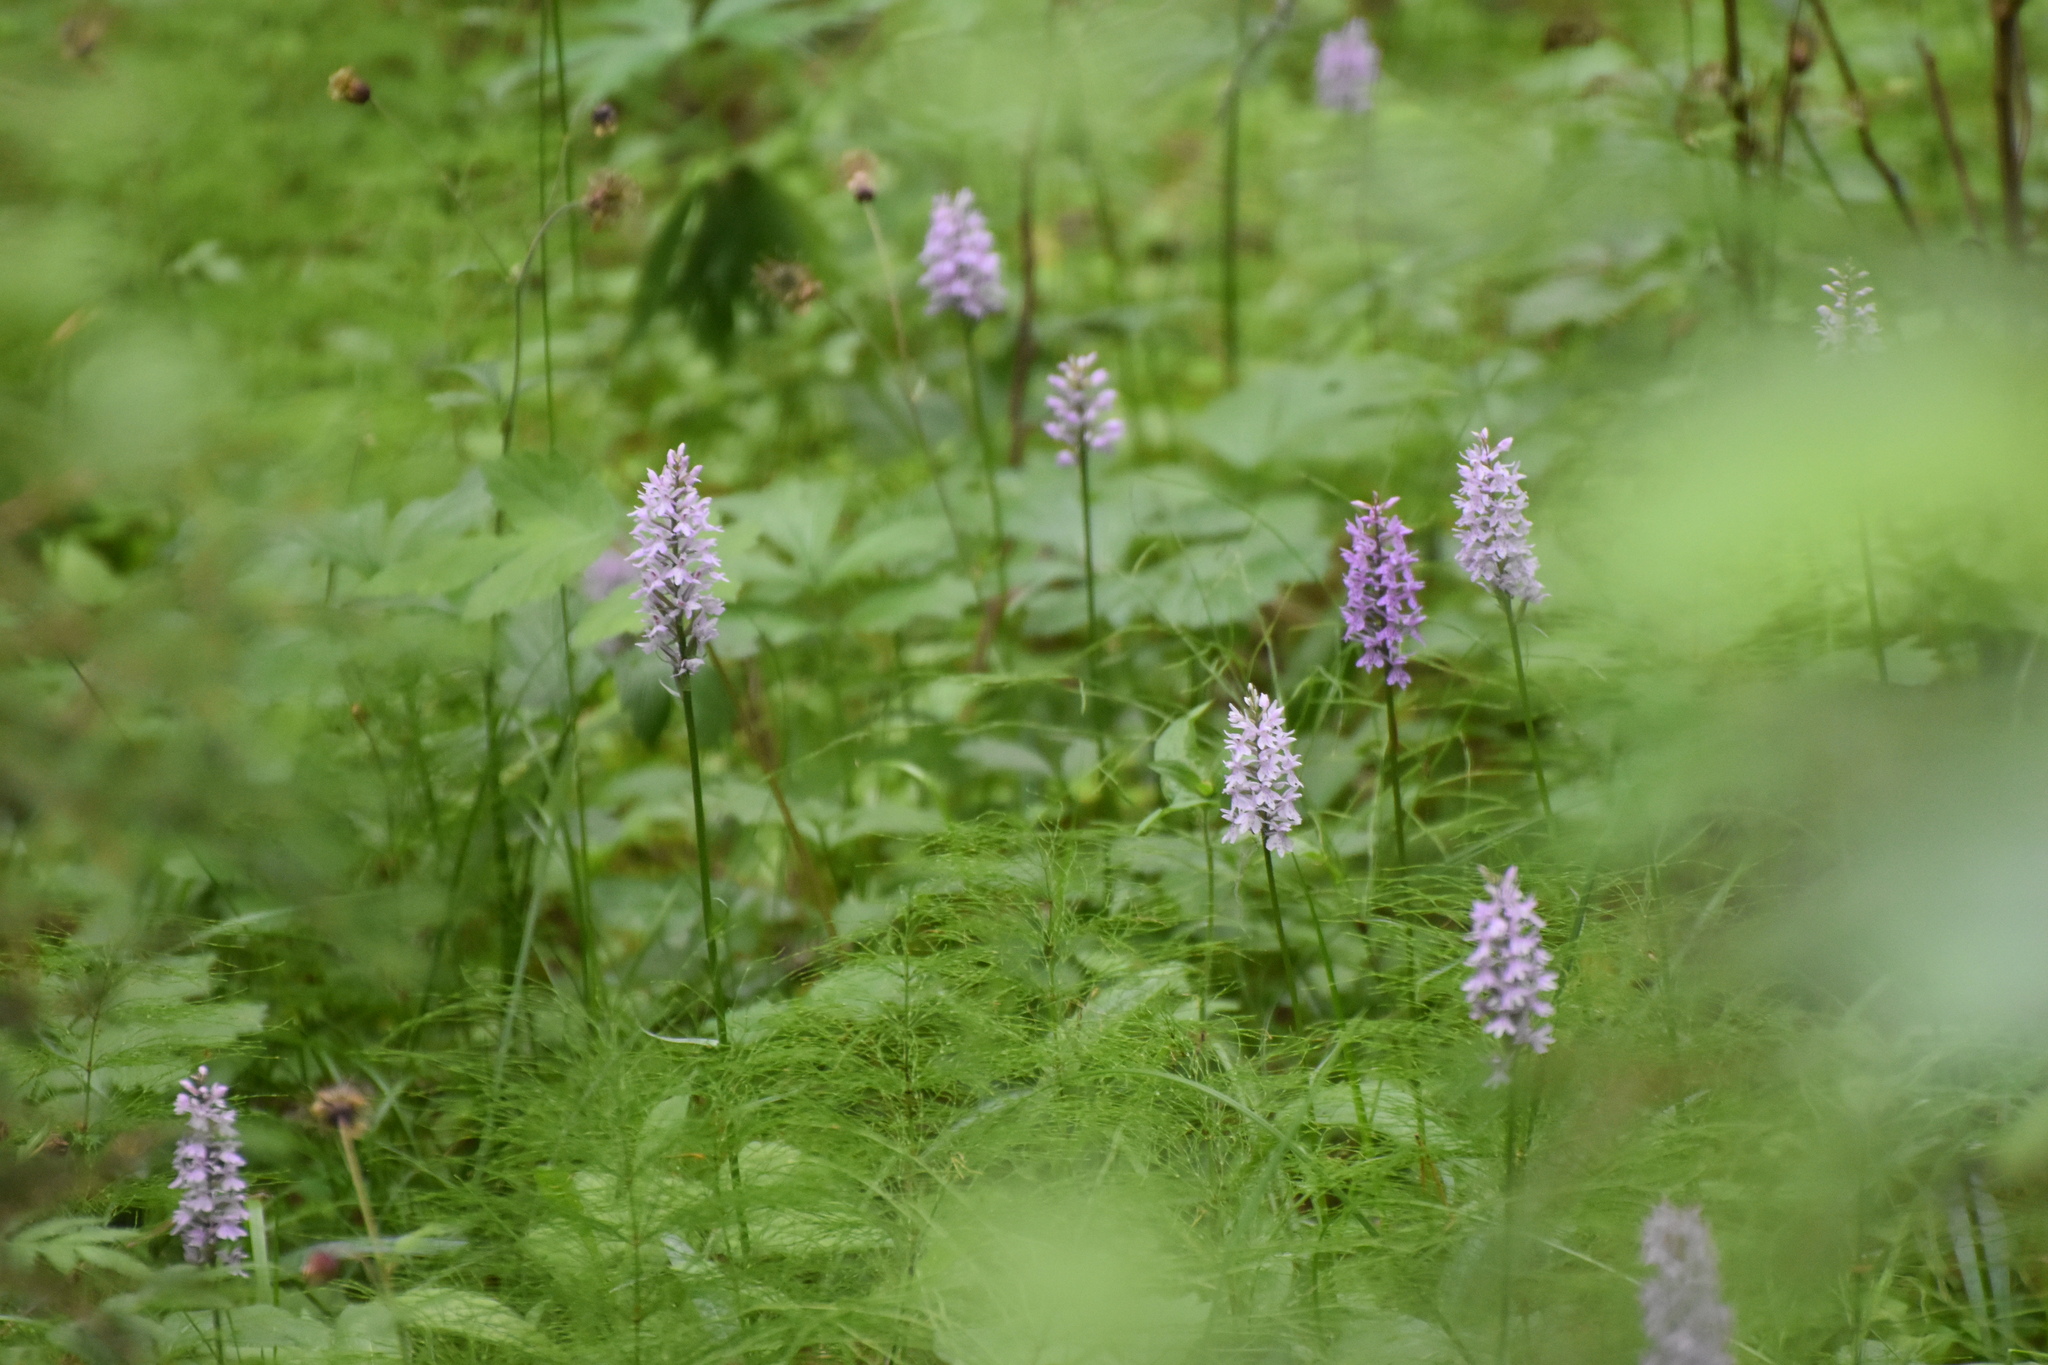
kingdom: Plantae
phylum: Tracheophyta
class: Liliopsida
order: Asparagales
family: Orchidaceae
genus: Dactylorhiza
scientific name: Dactylorhiza maculata
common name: Heath spotted-orchid
